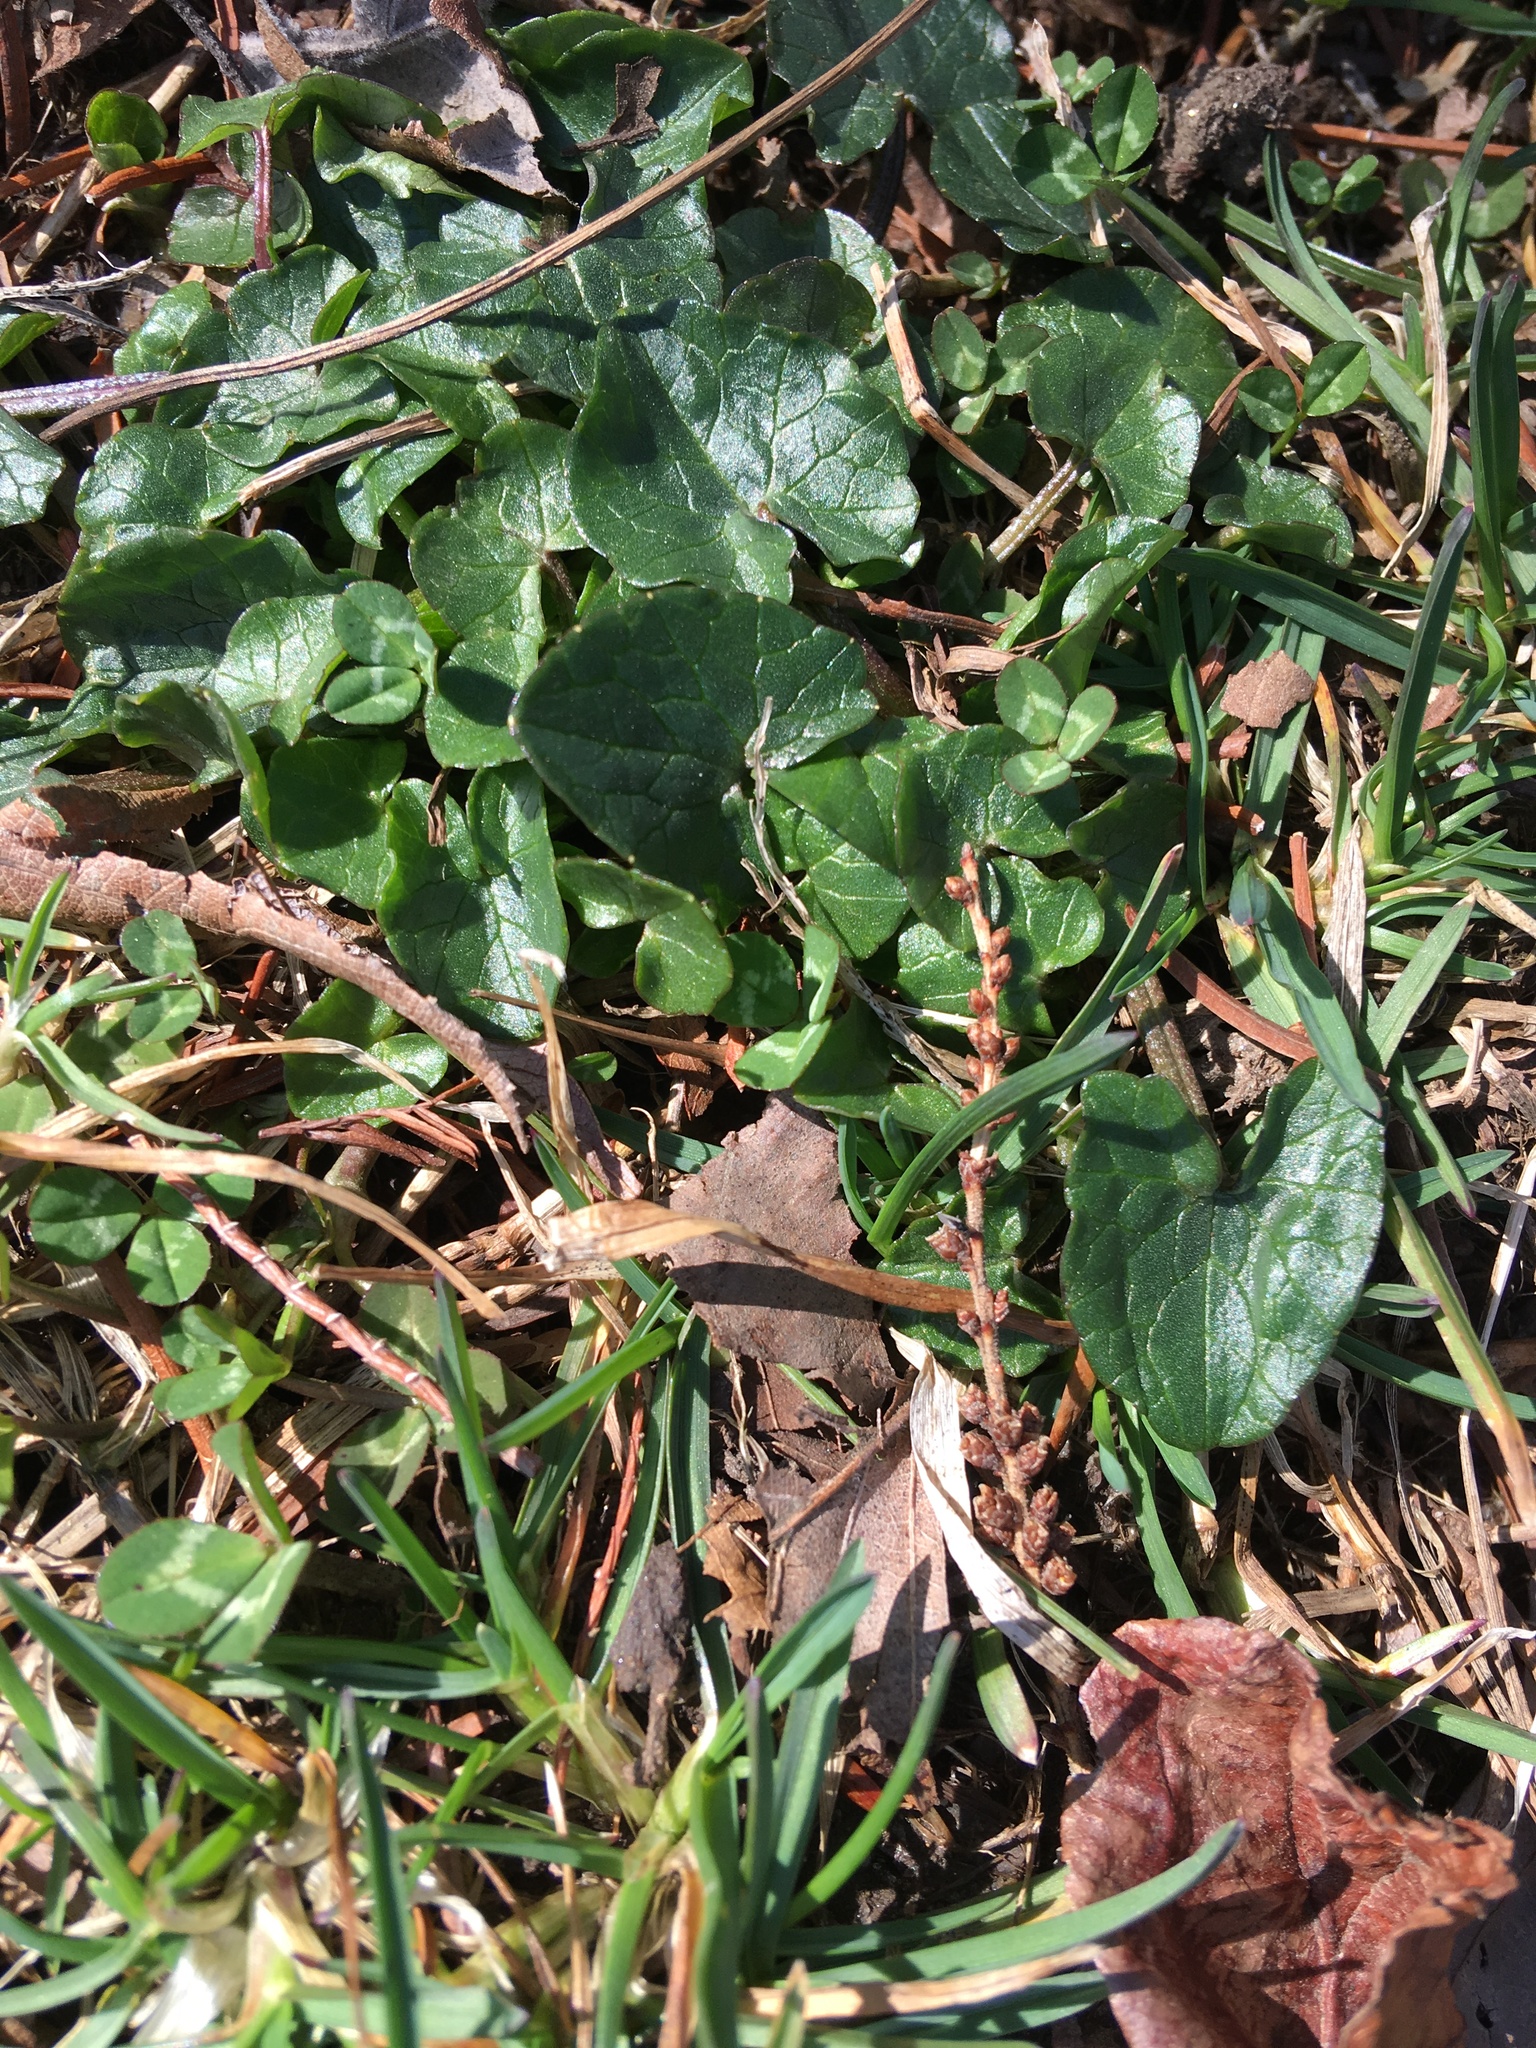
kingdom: Plantae
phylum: Tracheophyta
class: Magnoliopsida
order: Ranunculales
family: Ranunculaceae
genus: Ficaria
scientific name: Ficaria verna
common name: Lesser celandine
